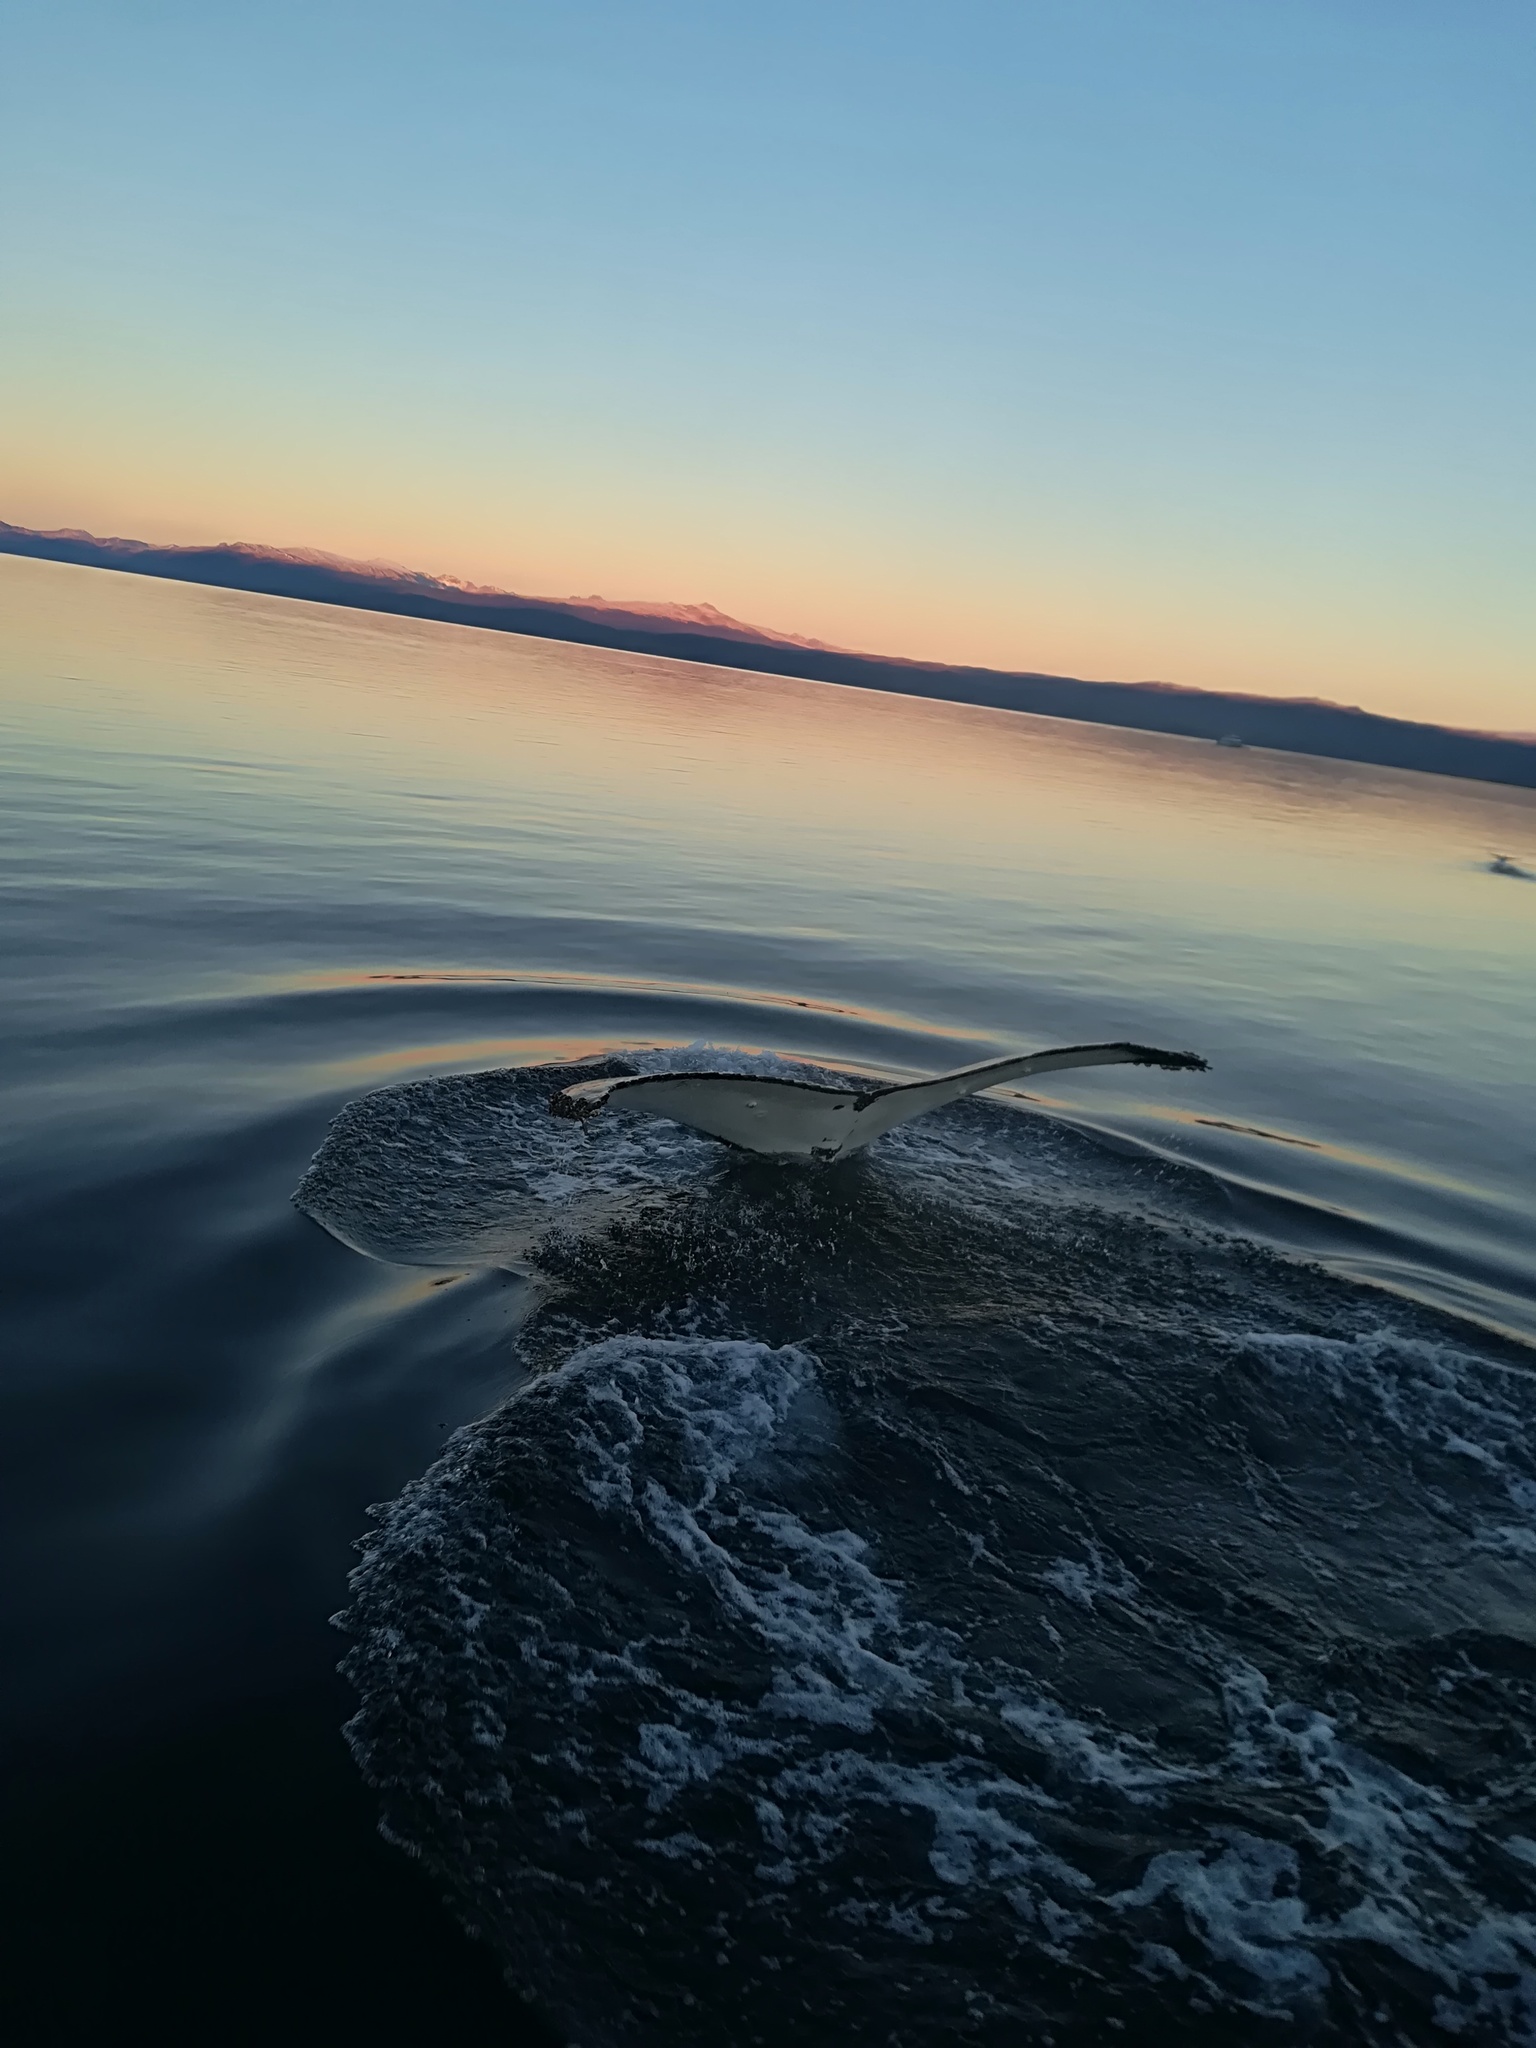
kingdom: Animalia
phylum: Chordata
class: Mammalia
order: Cetacea
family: Balaenopteridae
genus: Megaptera
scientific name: Megaptera novaeangliae
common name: Humpback whale
